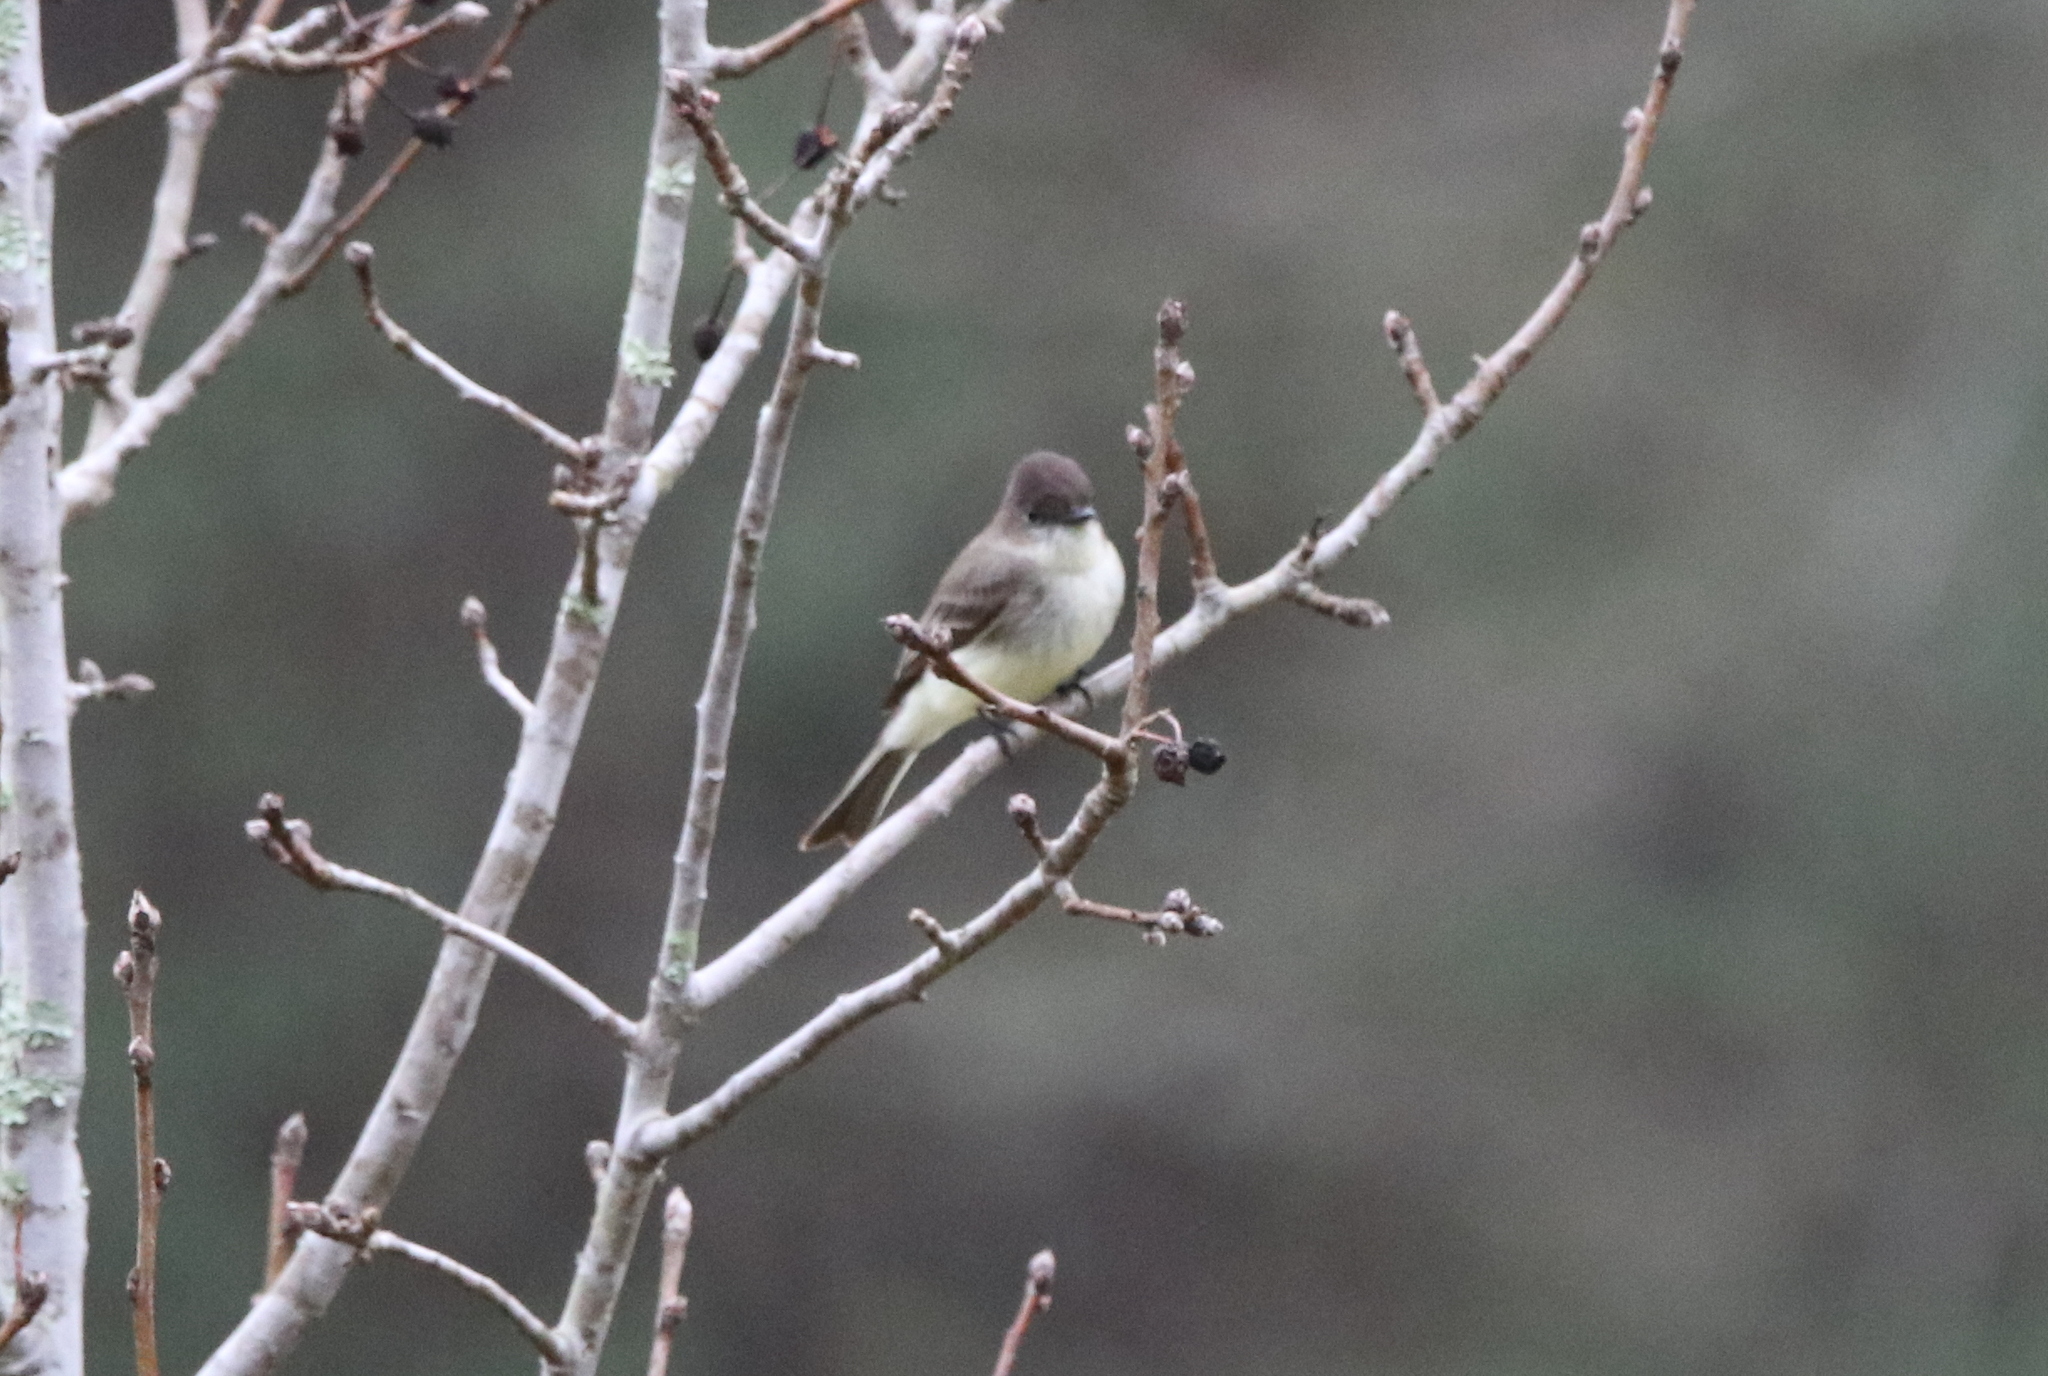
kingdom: Animalia
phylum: Chordata
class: Aves
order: Passeriformes
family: Tyrannidae
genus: Sayornis
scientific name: Sayornis phoebe
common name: Eastern phoebe
